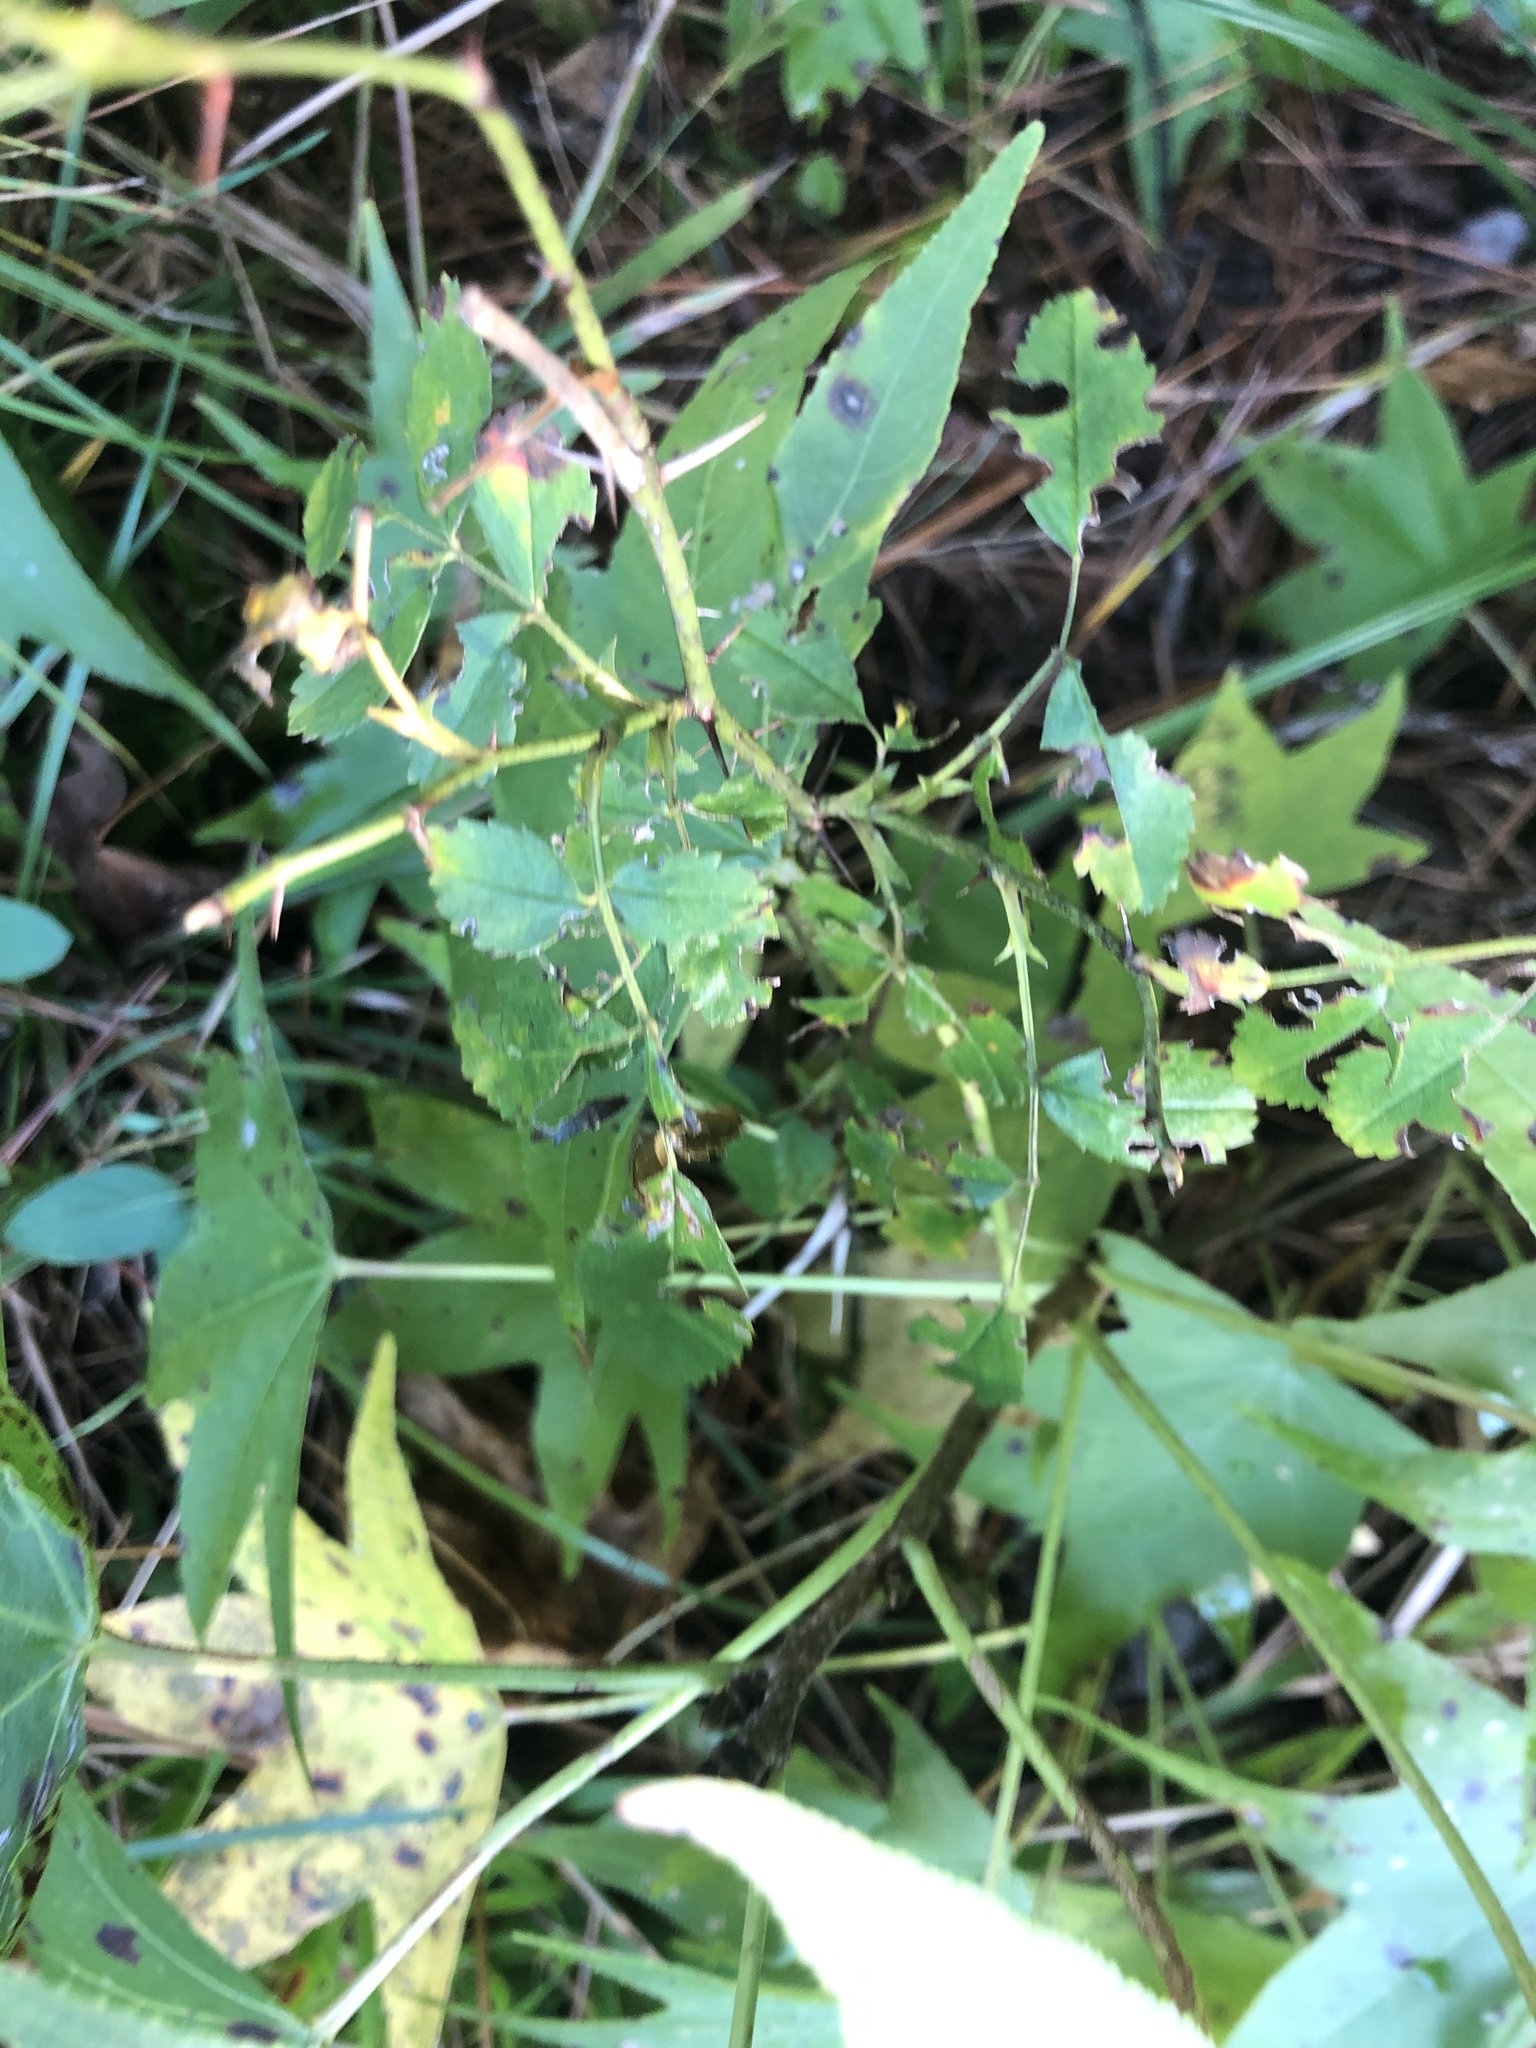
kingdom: Plantae
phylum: Tracheophyta
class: Magnoliopsida
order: Rosales
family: Rosaceae
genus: Rosa
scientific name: Rosa carolina
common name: Pasture rose
